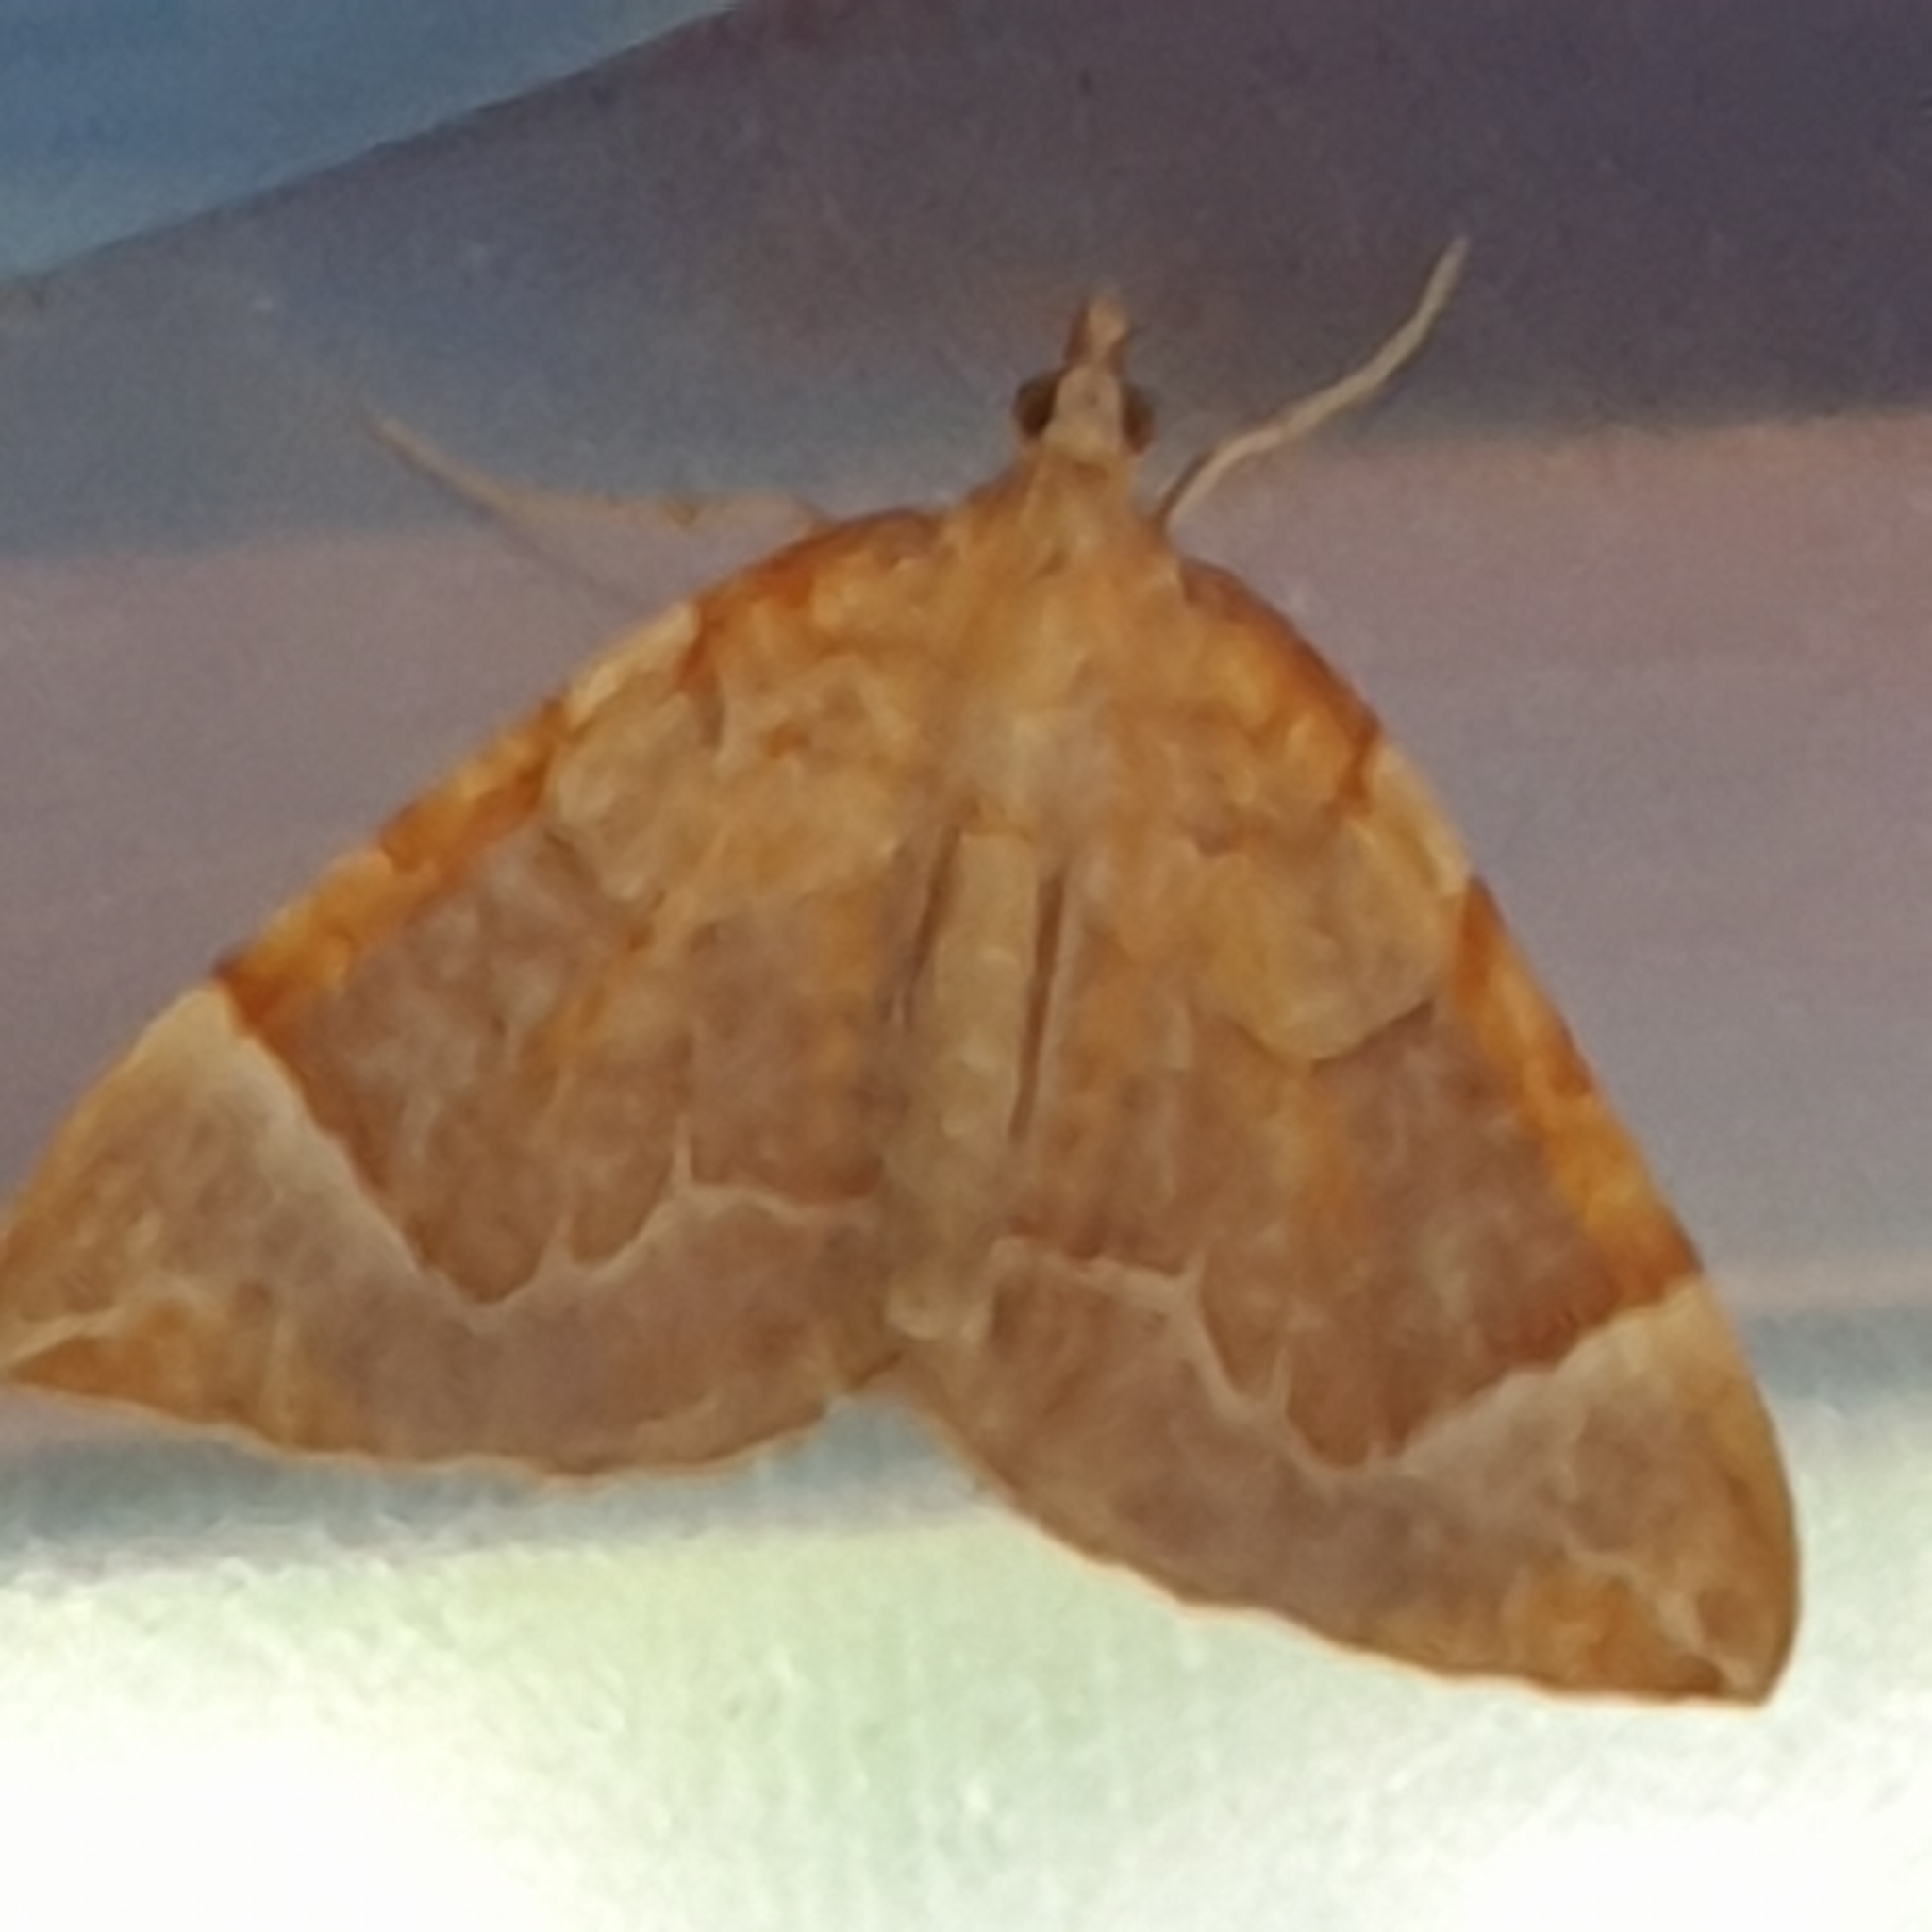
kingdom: Animalia
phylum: Arthropoda
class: Insecta
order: Lepidoptera
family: Geometridae
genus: Eulithis
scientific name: Eulithis testata
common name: Chevron
